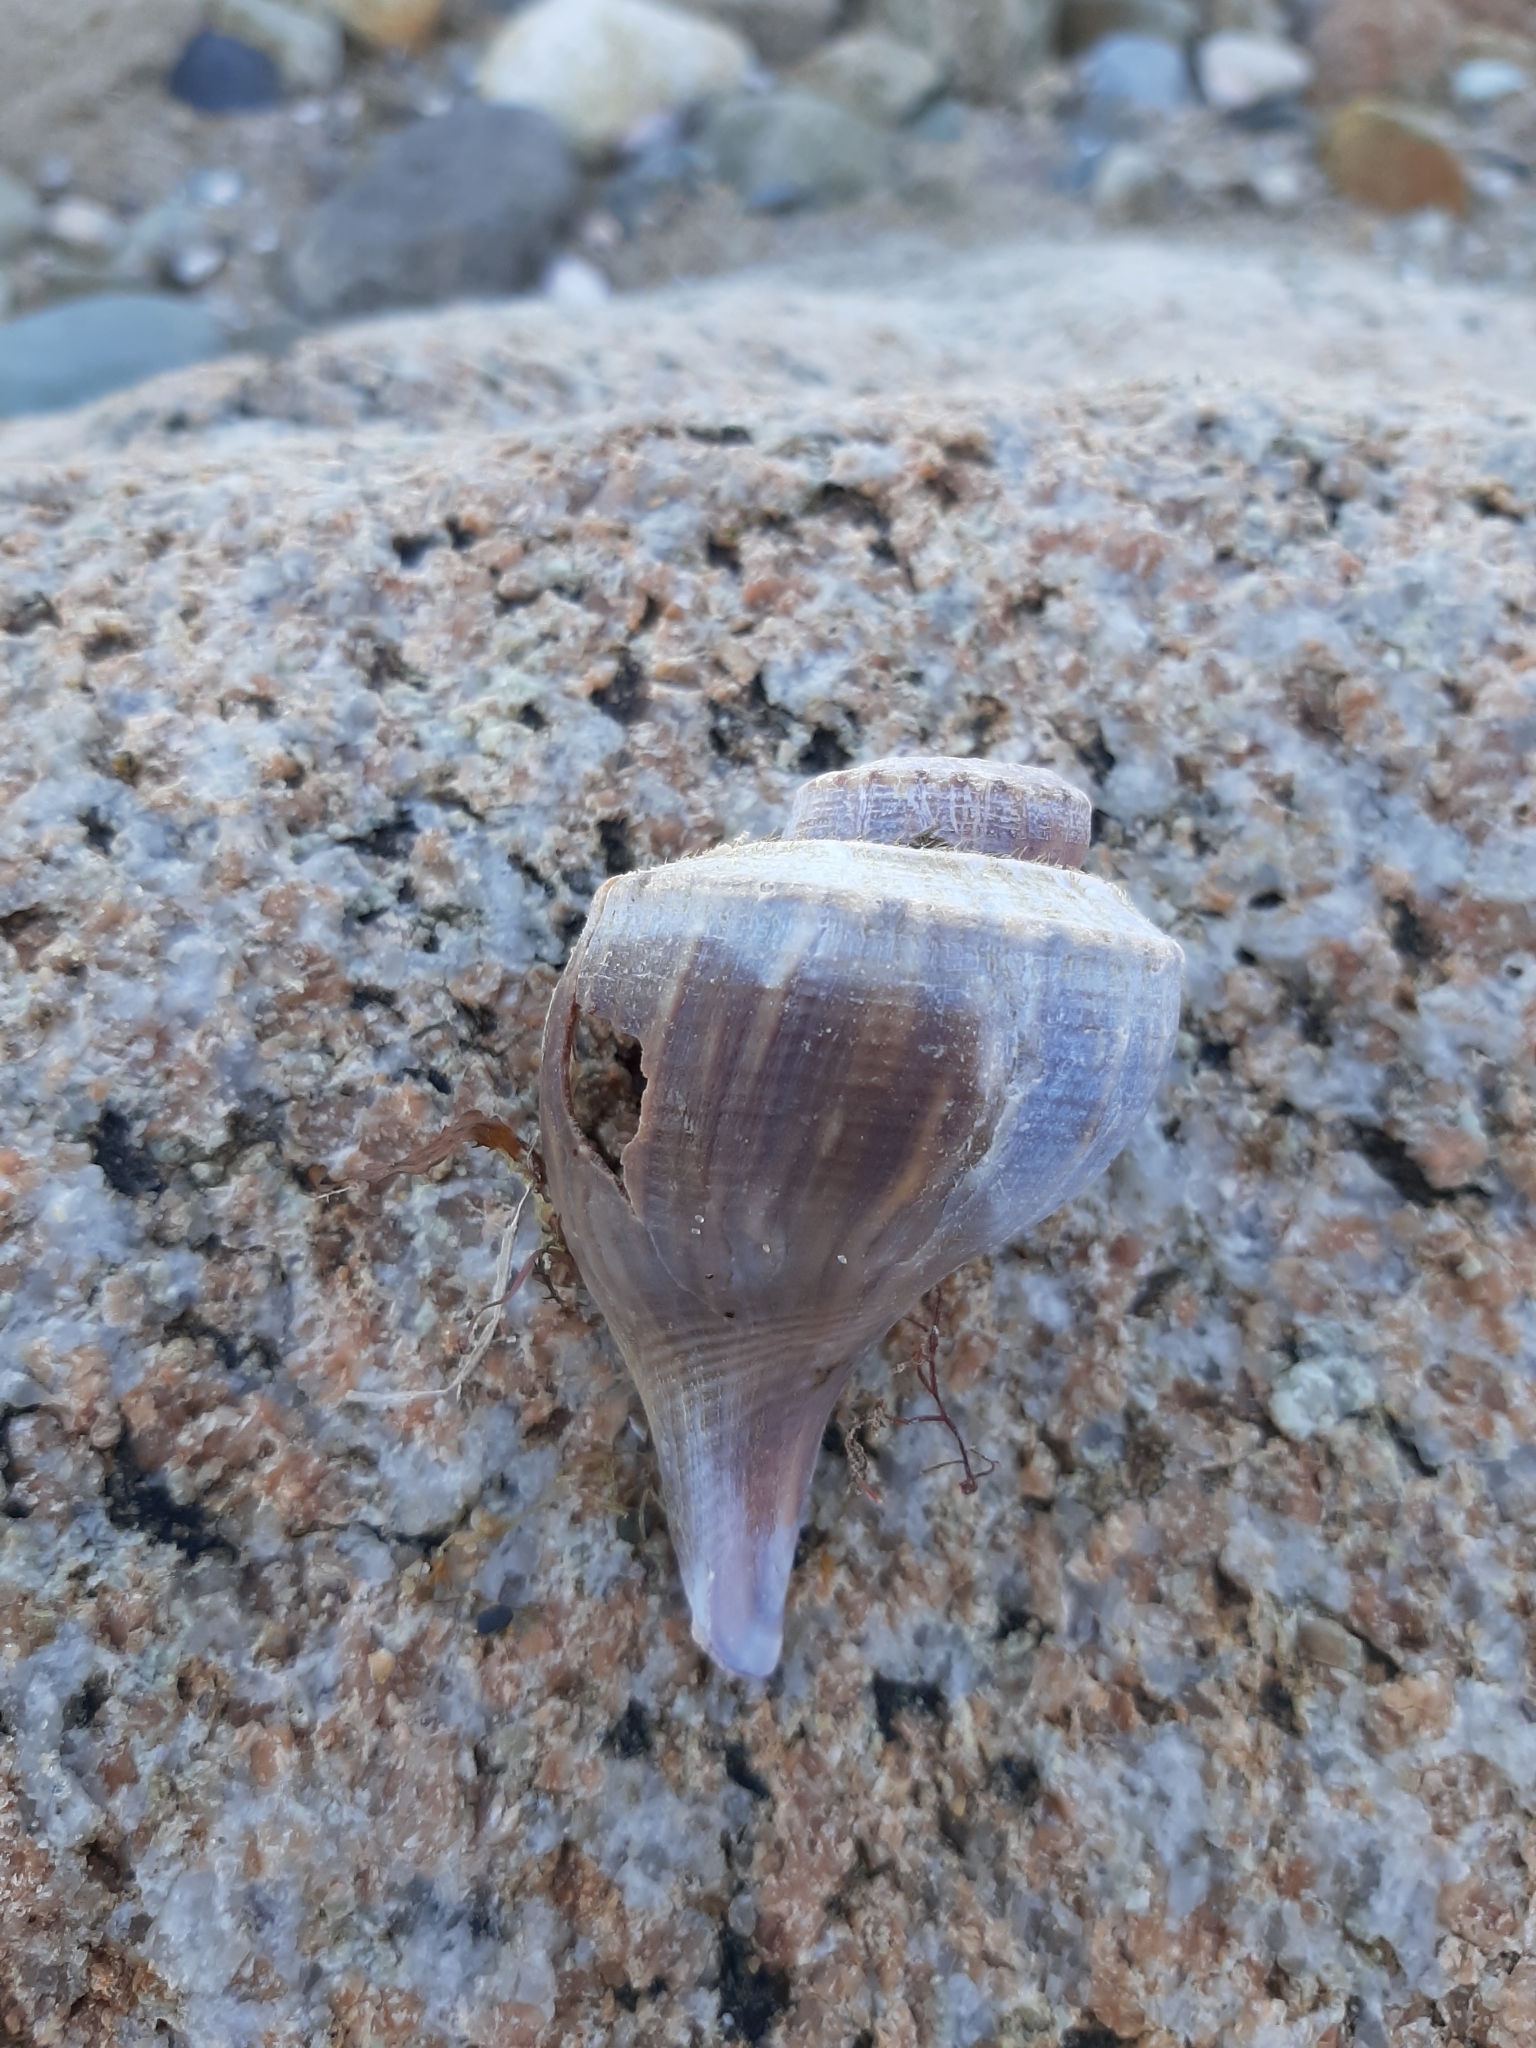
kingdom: Animalia
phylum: Mollusca
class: Gastropoda
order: Neogastropoda
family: Busyconidae
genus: Busycotypus
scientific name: Busycotypus canaliculatus
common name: Channeled whelk
